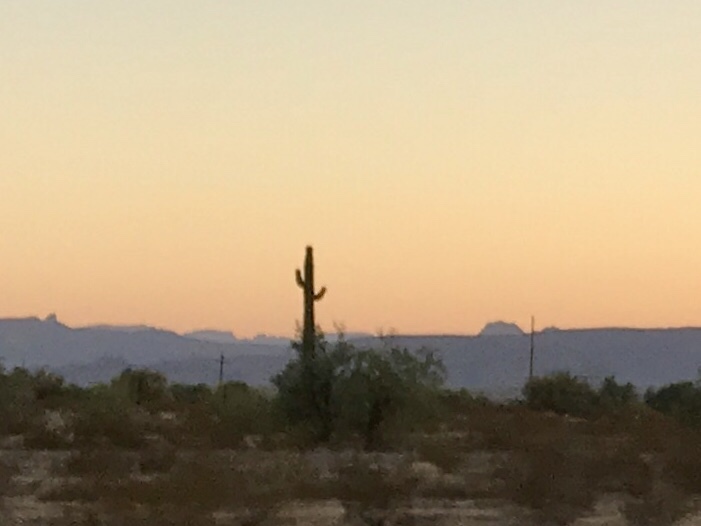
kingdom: Plantae
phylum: Tracheophyta
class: Magnoliopsida
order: Caryophyllales
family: Cactaceae
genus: Carnegiea
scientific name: Carnegiea gigantea
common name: Saguaro
